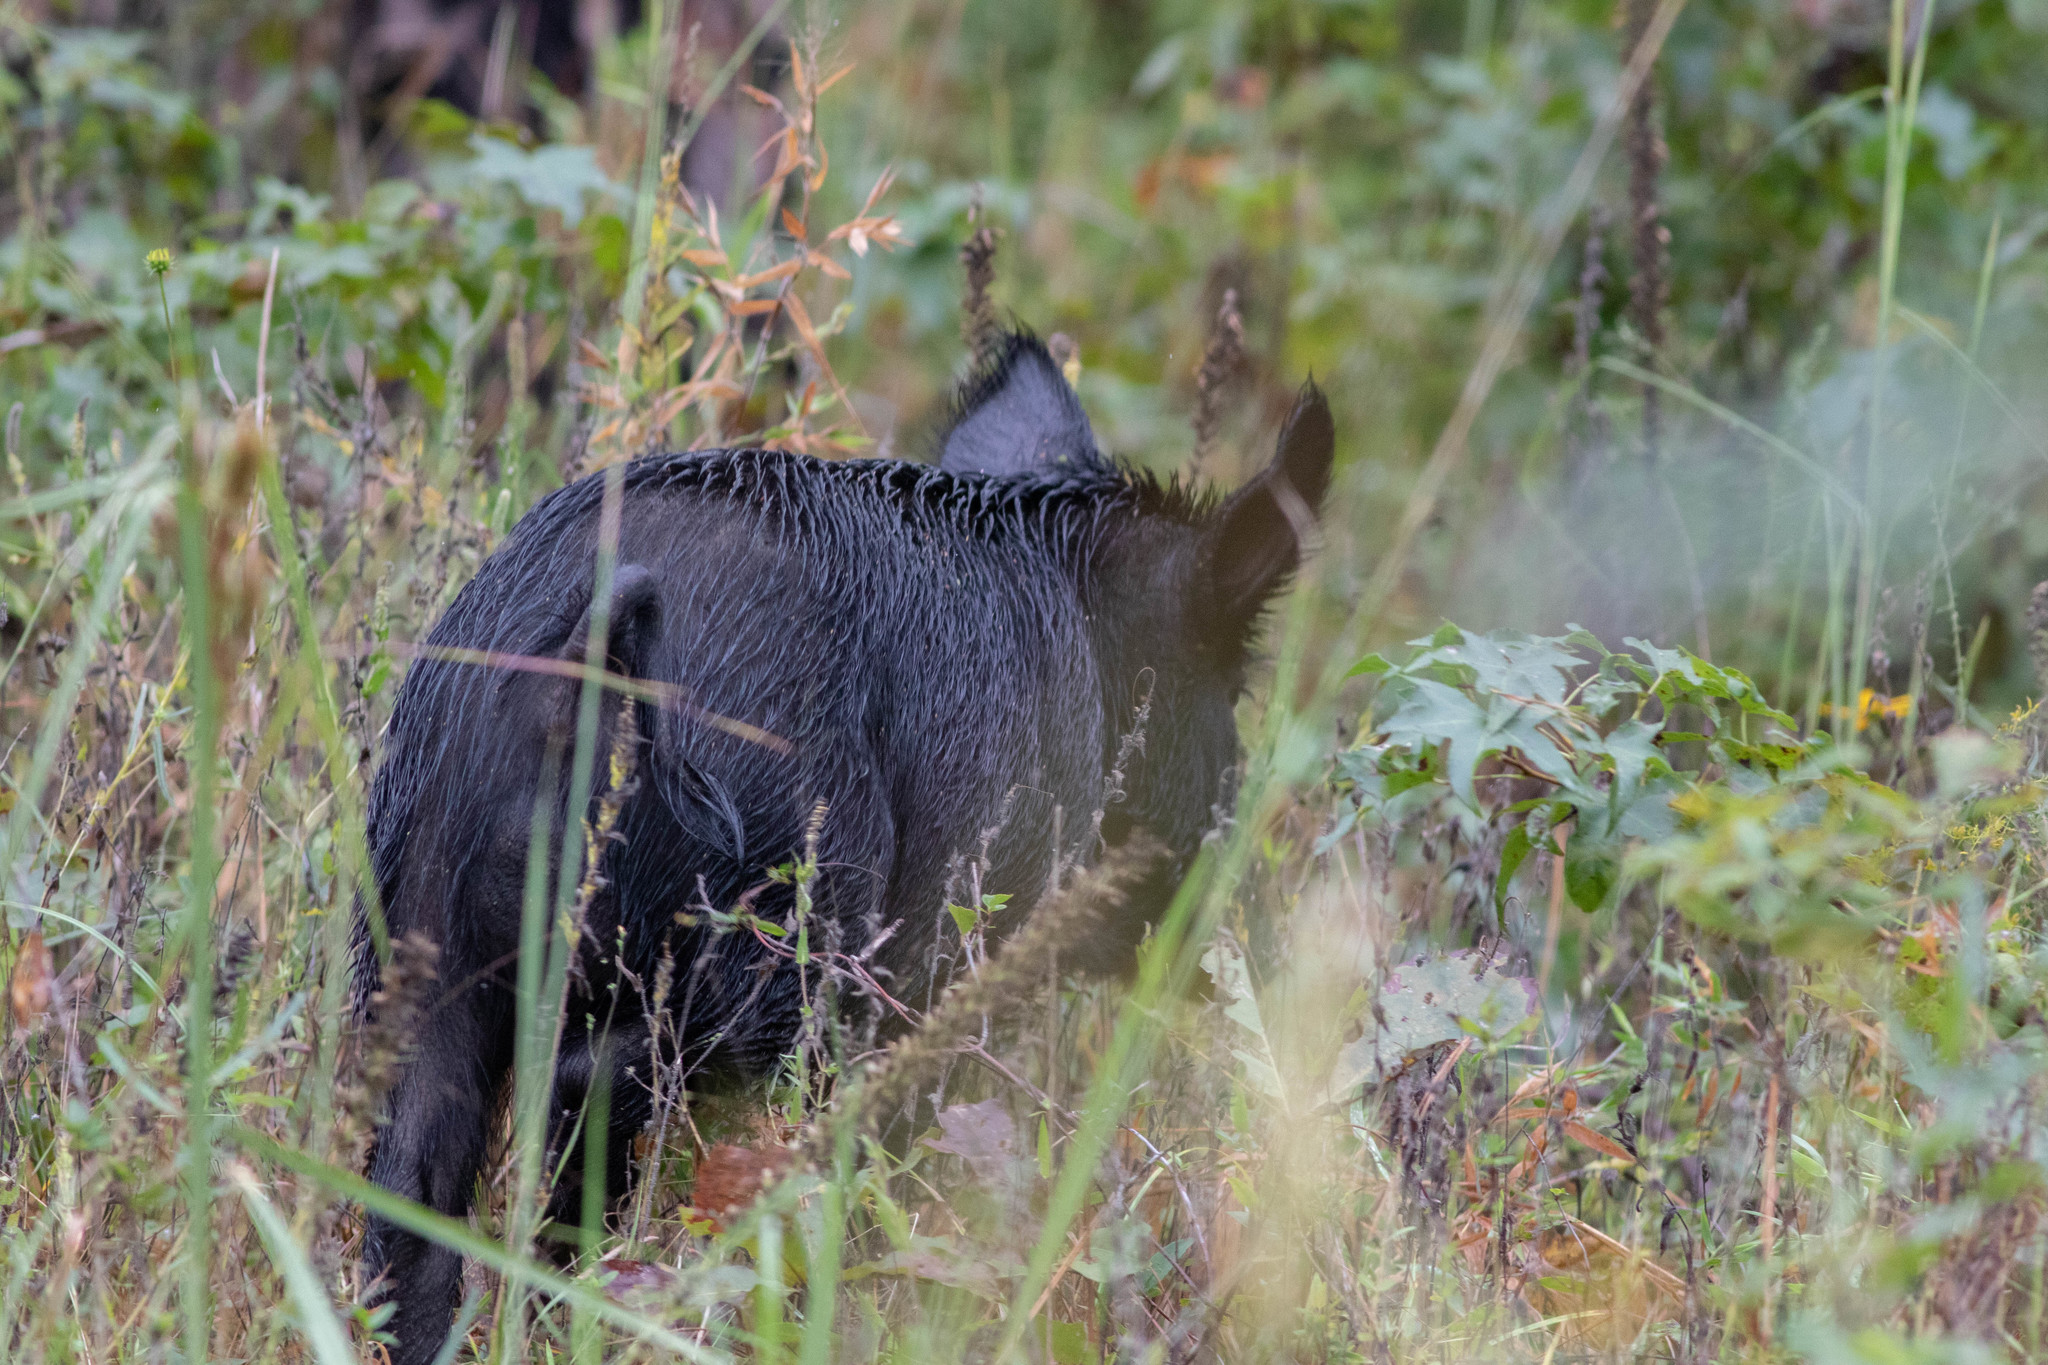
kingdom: Animalia
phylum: Chordata
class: Mammalia
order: Artiodactyla
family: Suidae
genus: Sus
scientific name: Sus scrofa
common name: Wild boar
